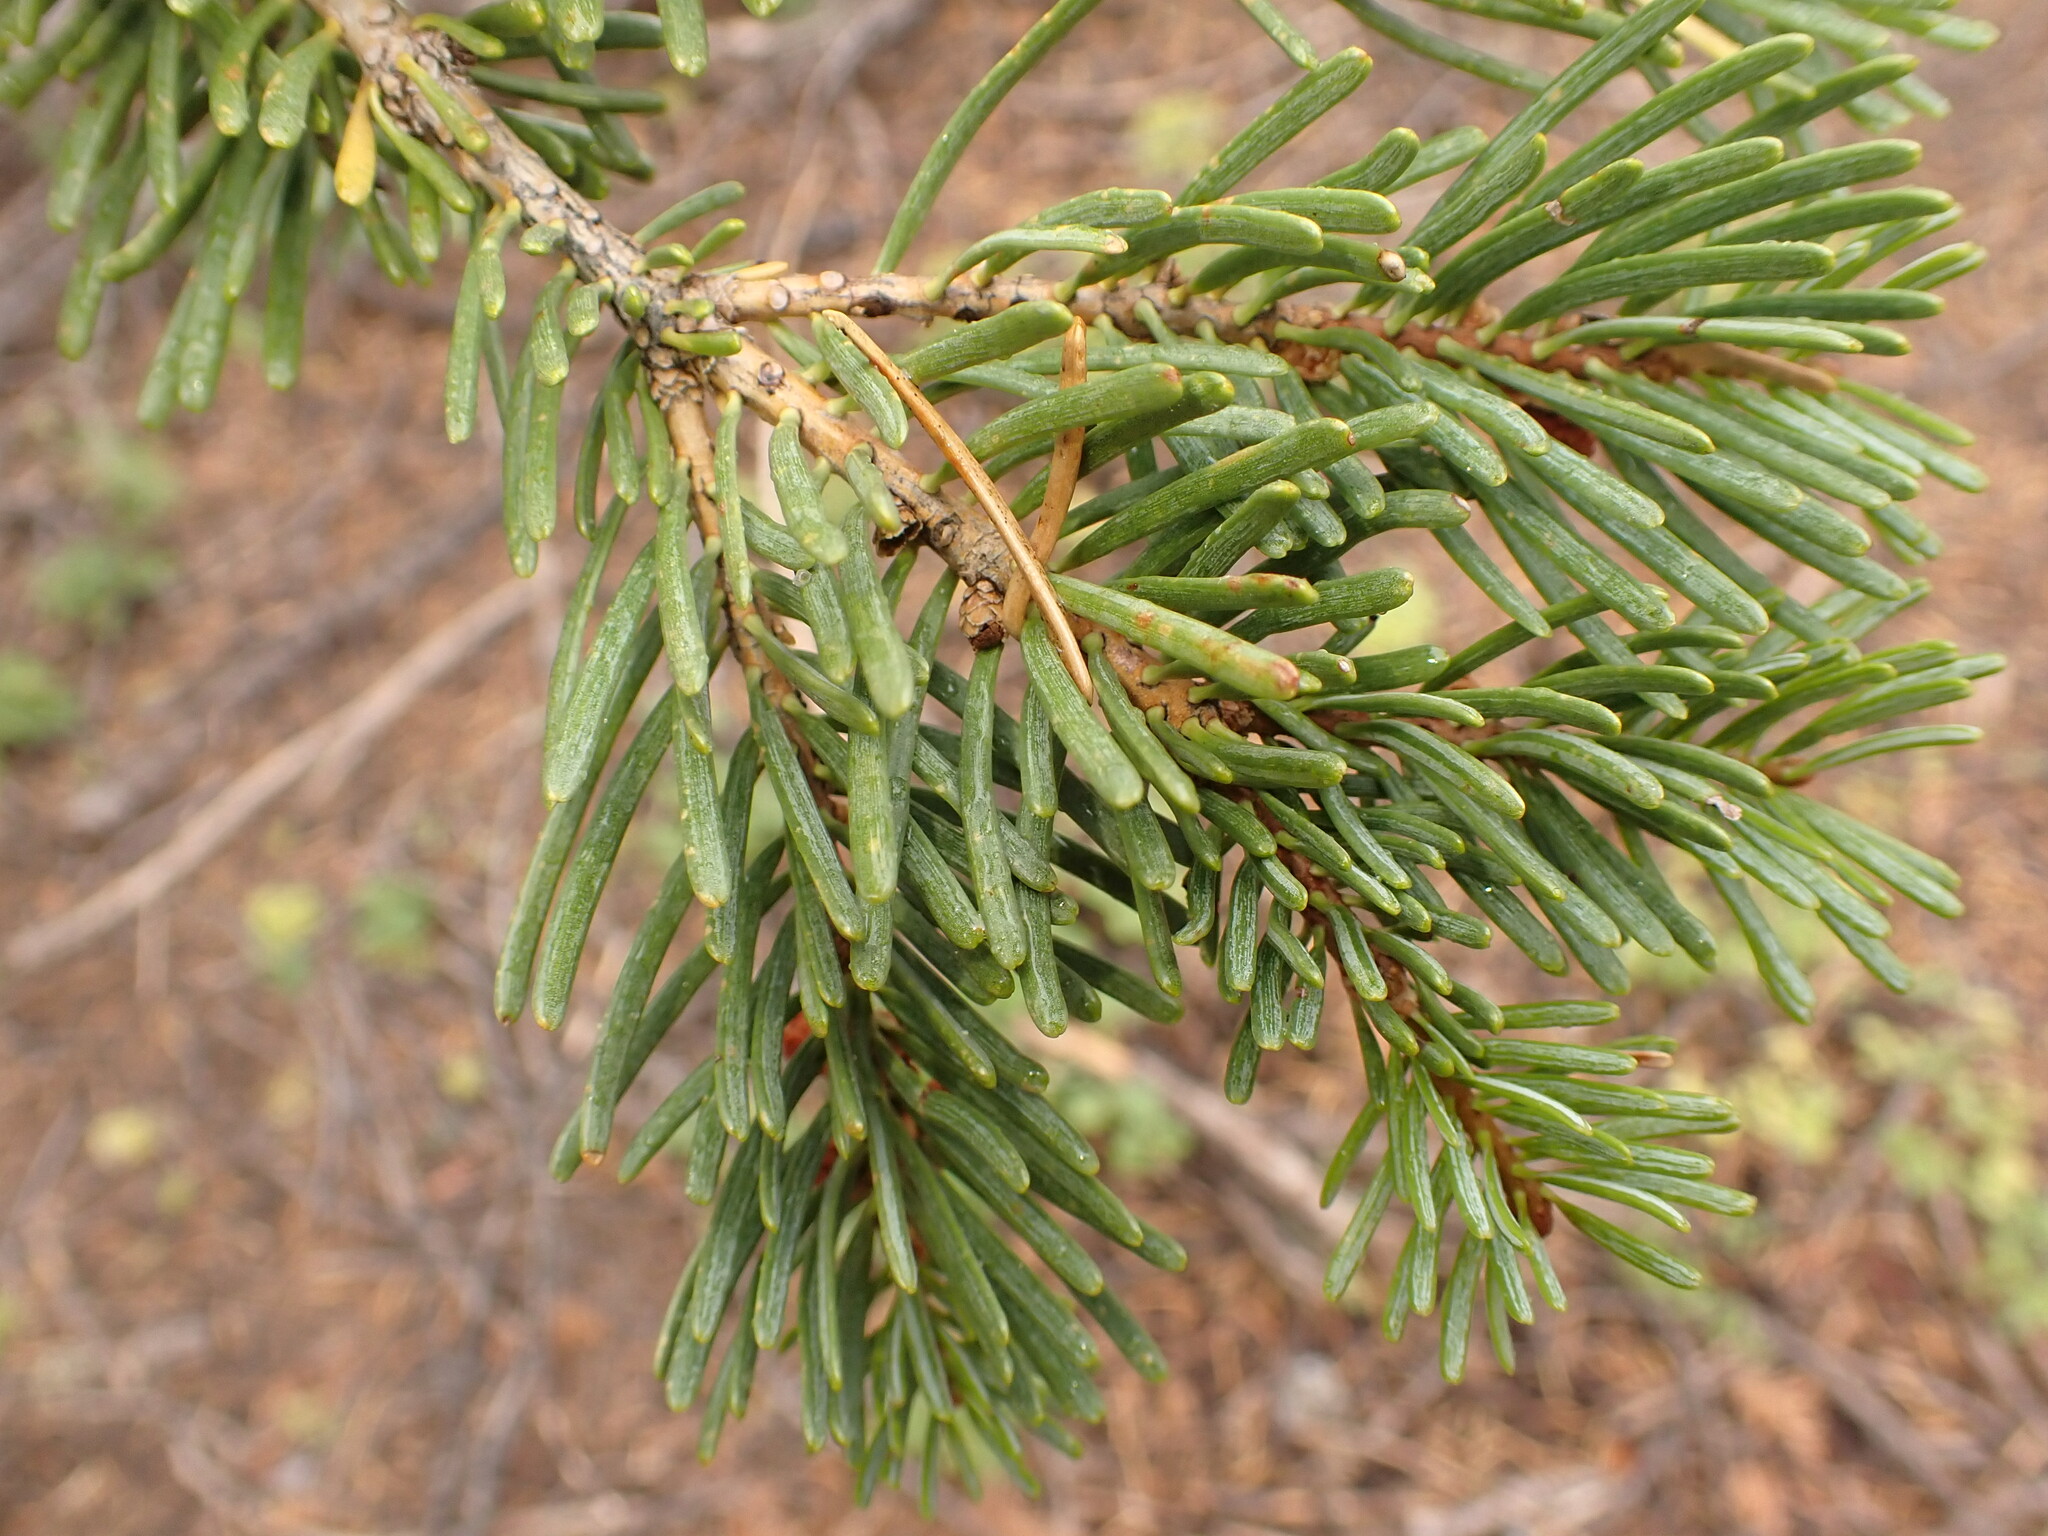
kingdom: Plantae
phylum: Tracheophyta
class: Pinopsida
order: Pinales
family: Pinaceae
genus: Abies
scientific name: Abies concolor
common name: Colorado fir
